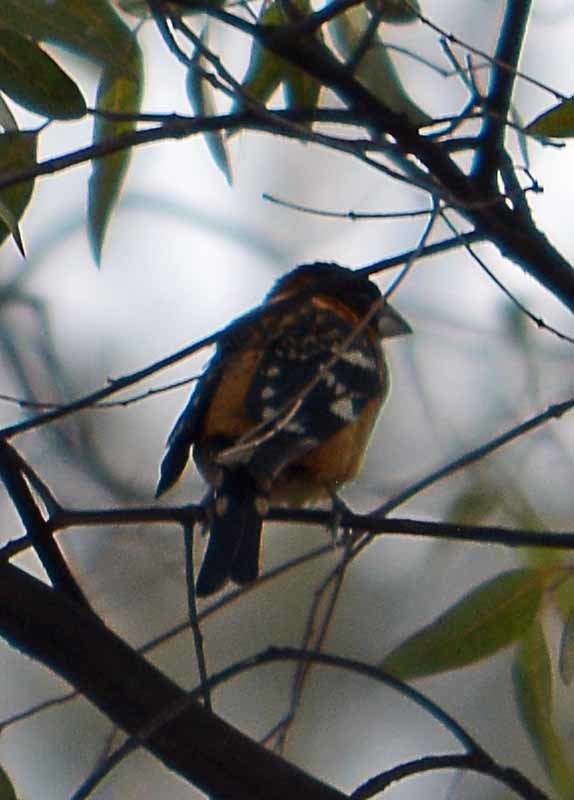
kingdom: Animalia
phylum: Chordata
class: Aves
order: Passeriformes
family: Cardinalidae
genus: Pheucticus
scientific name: Pheucticus melanocephalus
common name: Black-headed grosbeak
